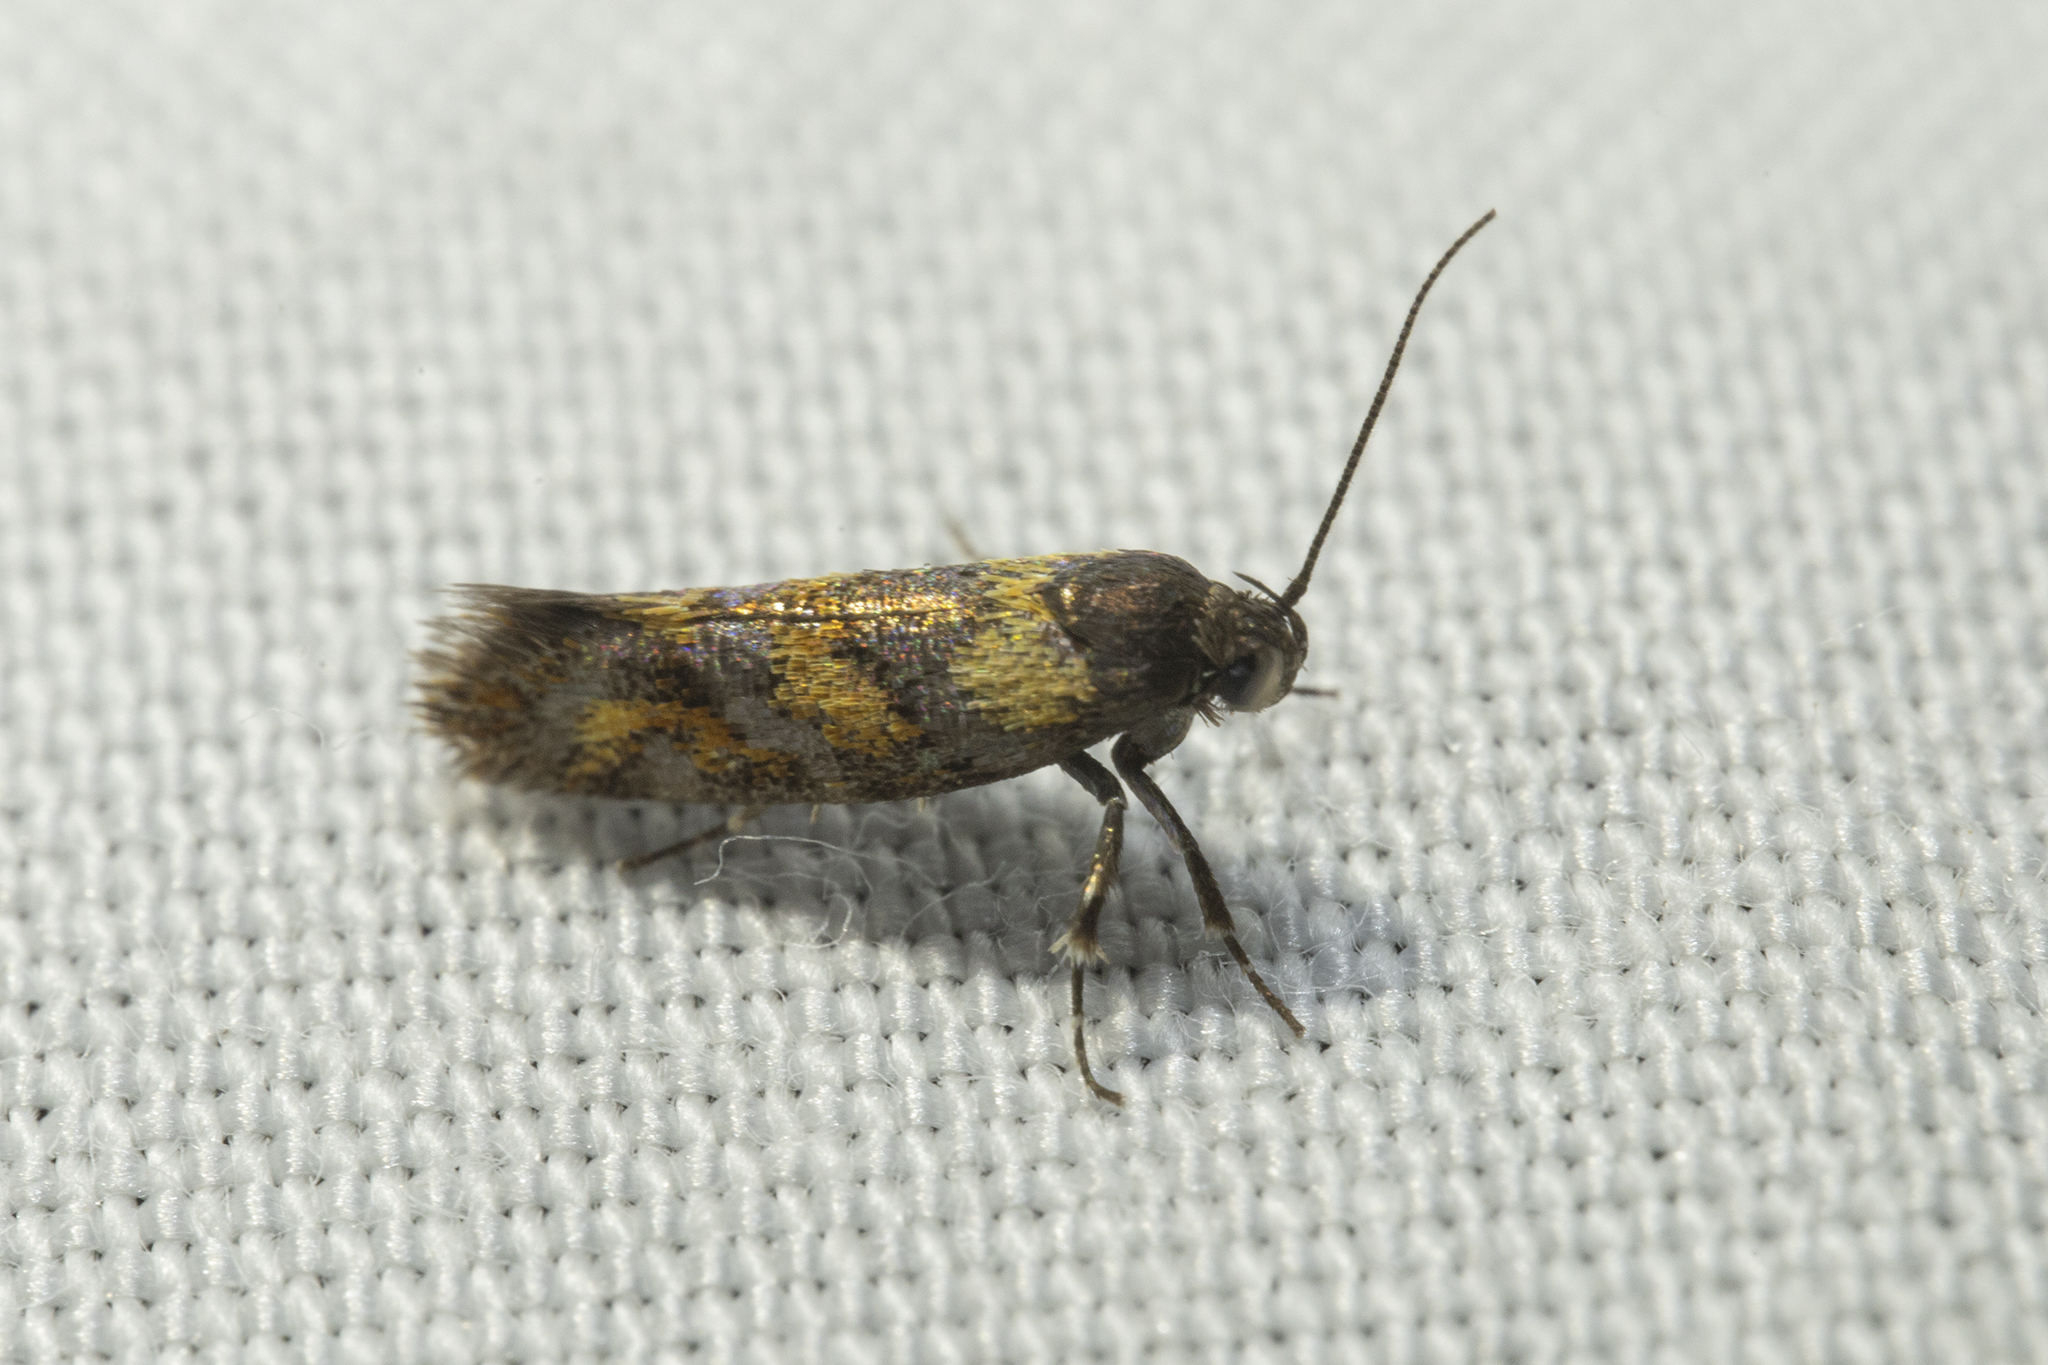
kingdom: Animalia
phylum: Arthropoda
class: Insecta
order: Lepidoptera
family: Oecophoridae
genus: Tingena
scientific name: Tingena compsogramma
